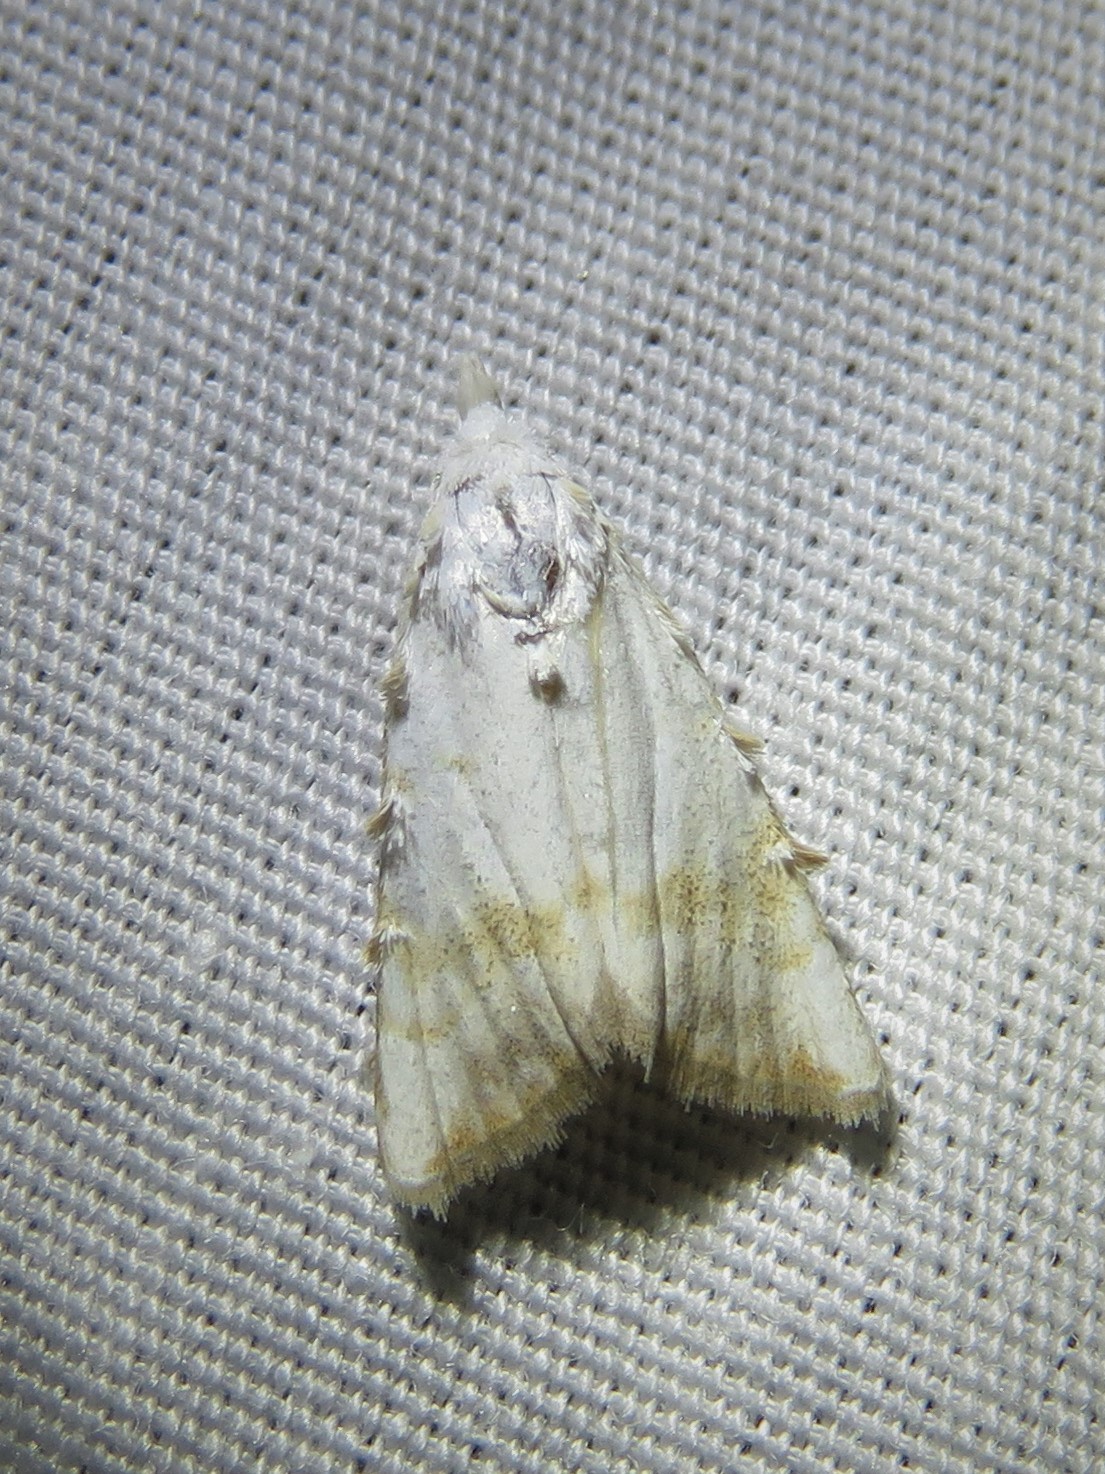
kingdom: Animalia
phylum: Arthropoda
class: Insecta
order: Lepidoptera
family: Nolidae
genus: Nola
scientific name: Nola cereella
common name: Sorghum webworm moth
